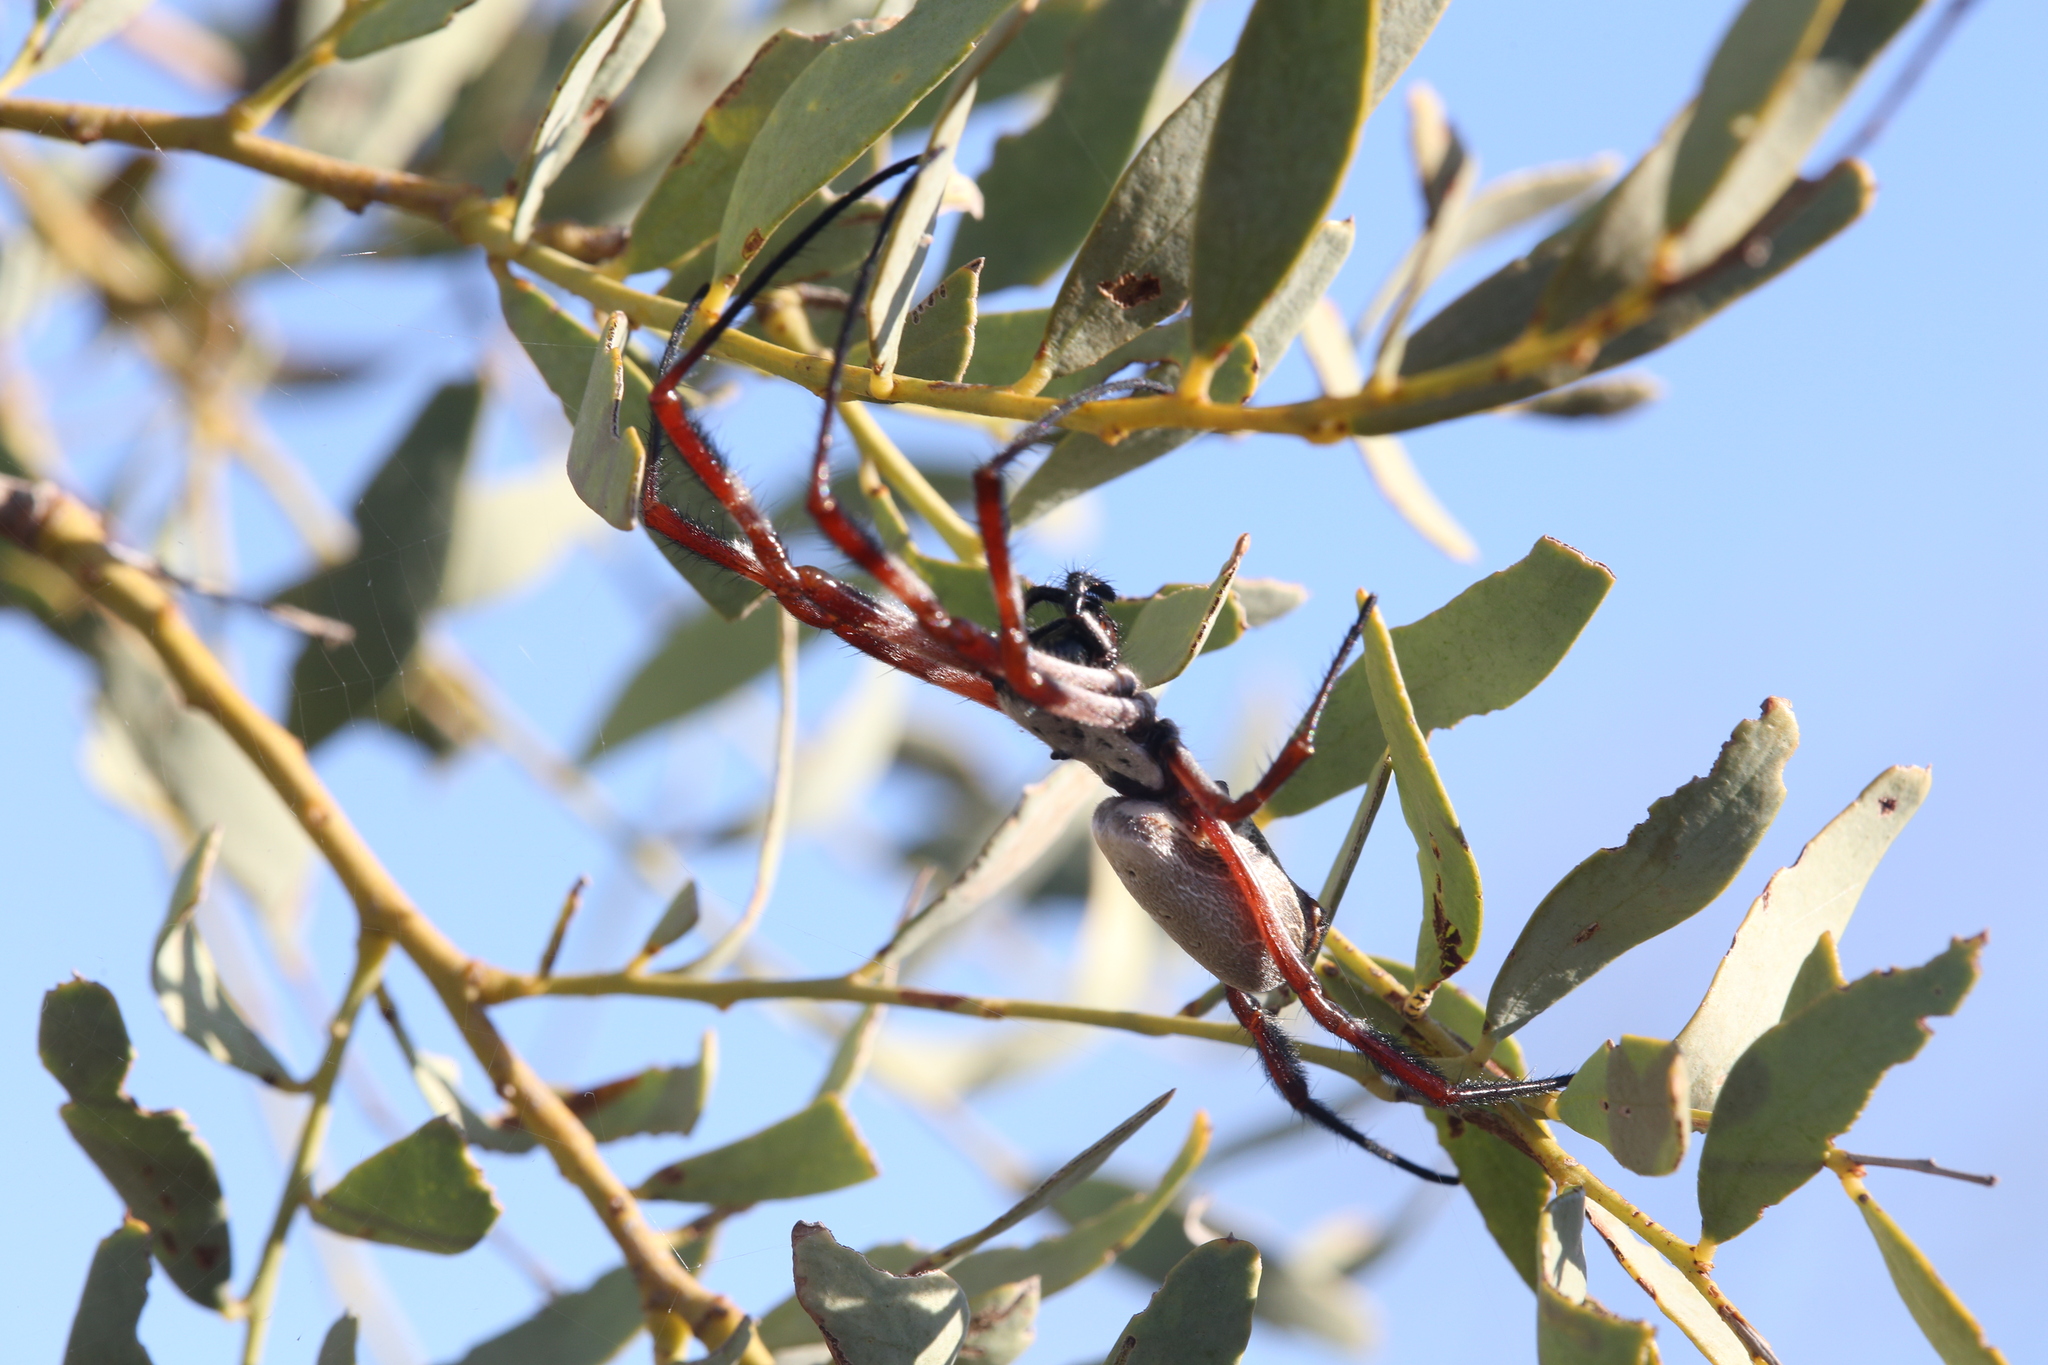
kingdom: Animalia
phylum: Arthropoda
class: Arachnida
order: Araneae
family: Araneidae
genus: Trichonephila
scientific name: Trichonephila edulis
